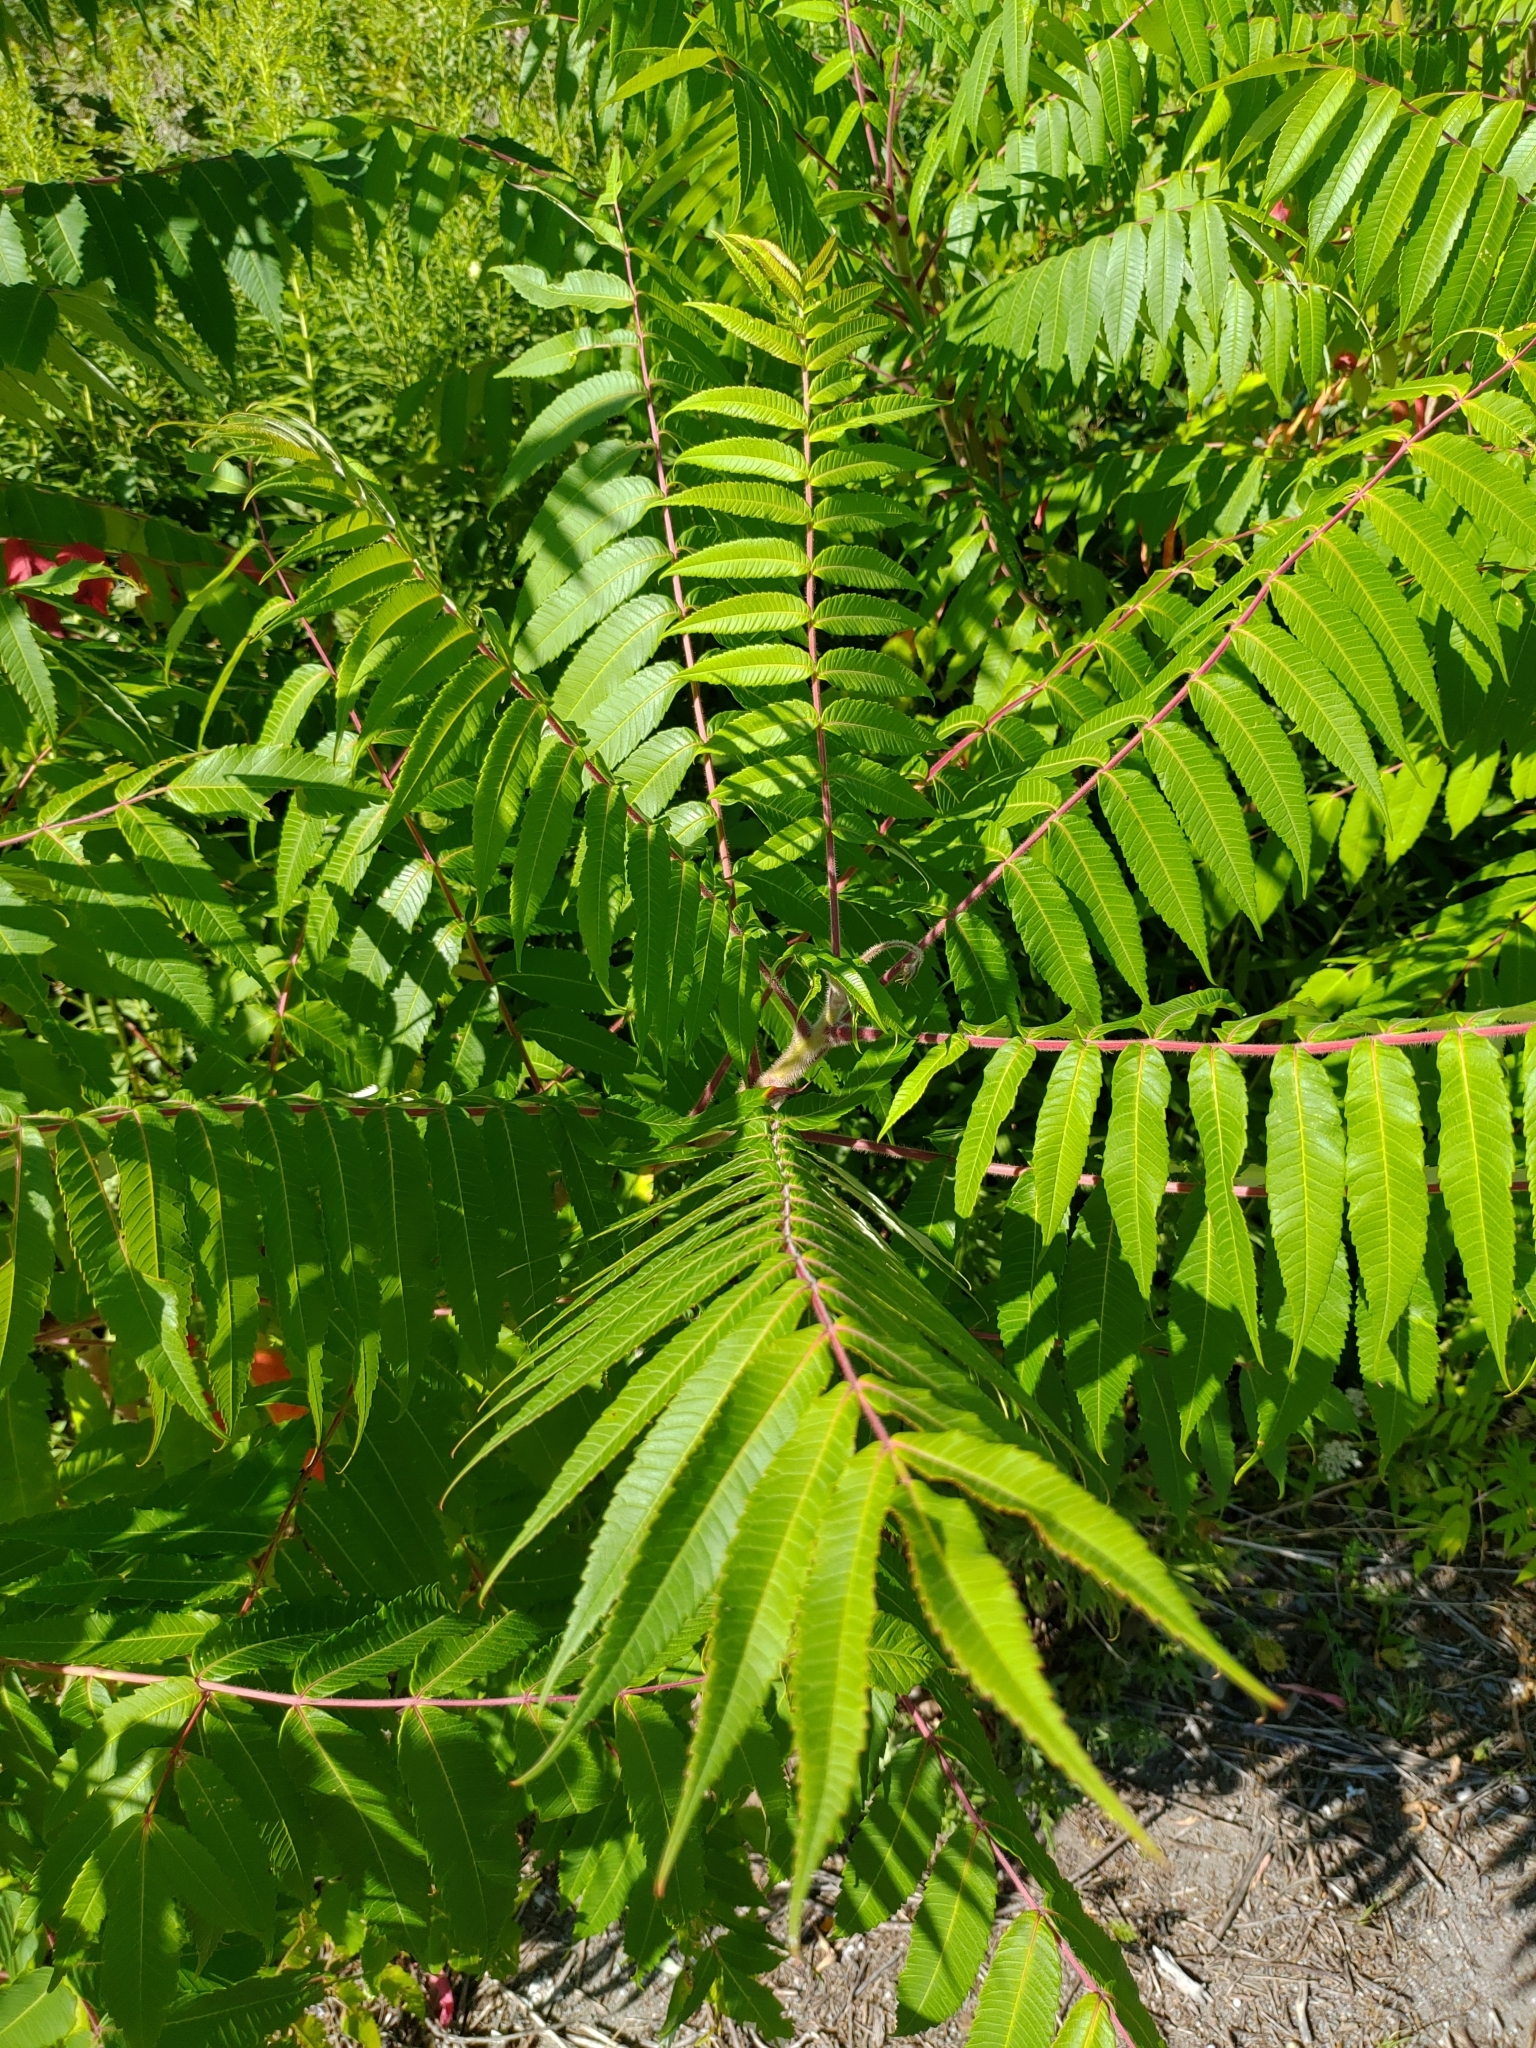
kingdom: Plantae
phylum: Tracheophyta
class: Magnoliopsida
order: Sapindales
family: Anacardiaceae
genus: Rhus
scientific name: Rhus typhina
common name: Staghorn sumac
